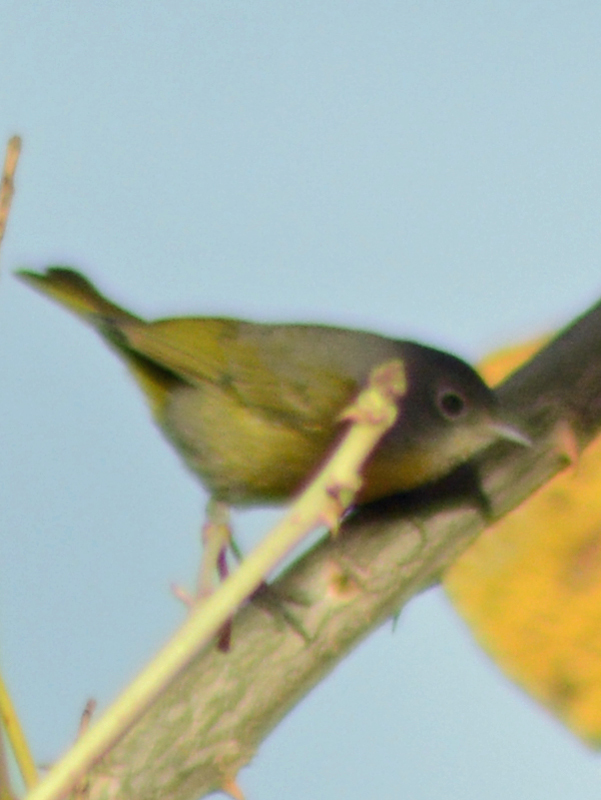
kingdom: Animalia
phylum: Chordata
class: Aves
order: Passeriformes
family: Parulidae
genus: Leiothlypis
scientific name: Leiothlypis ruficapilla
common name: Nashville warbler
